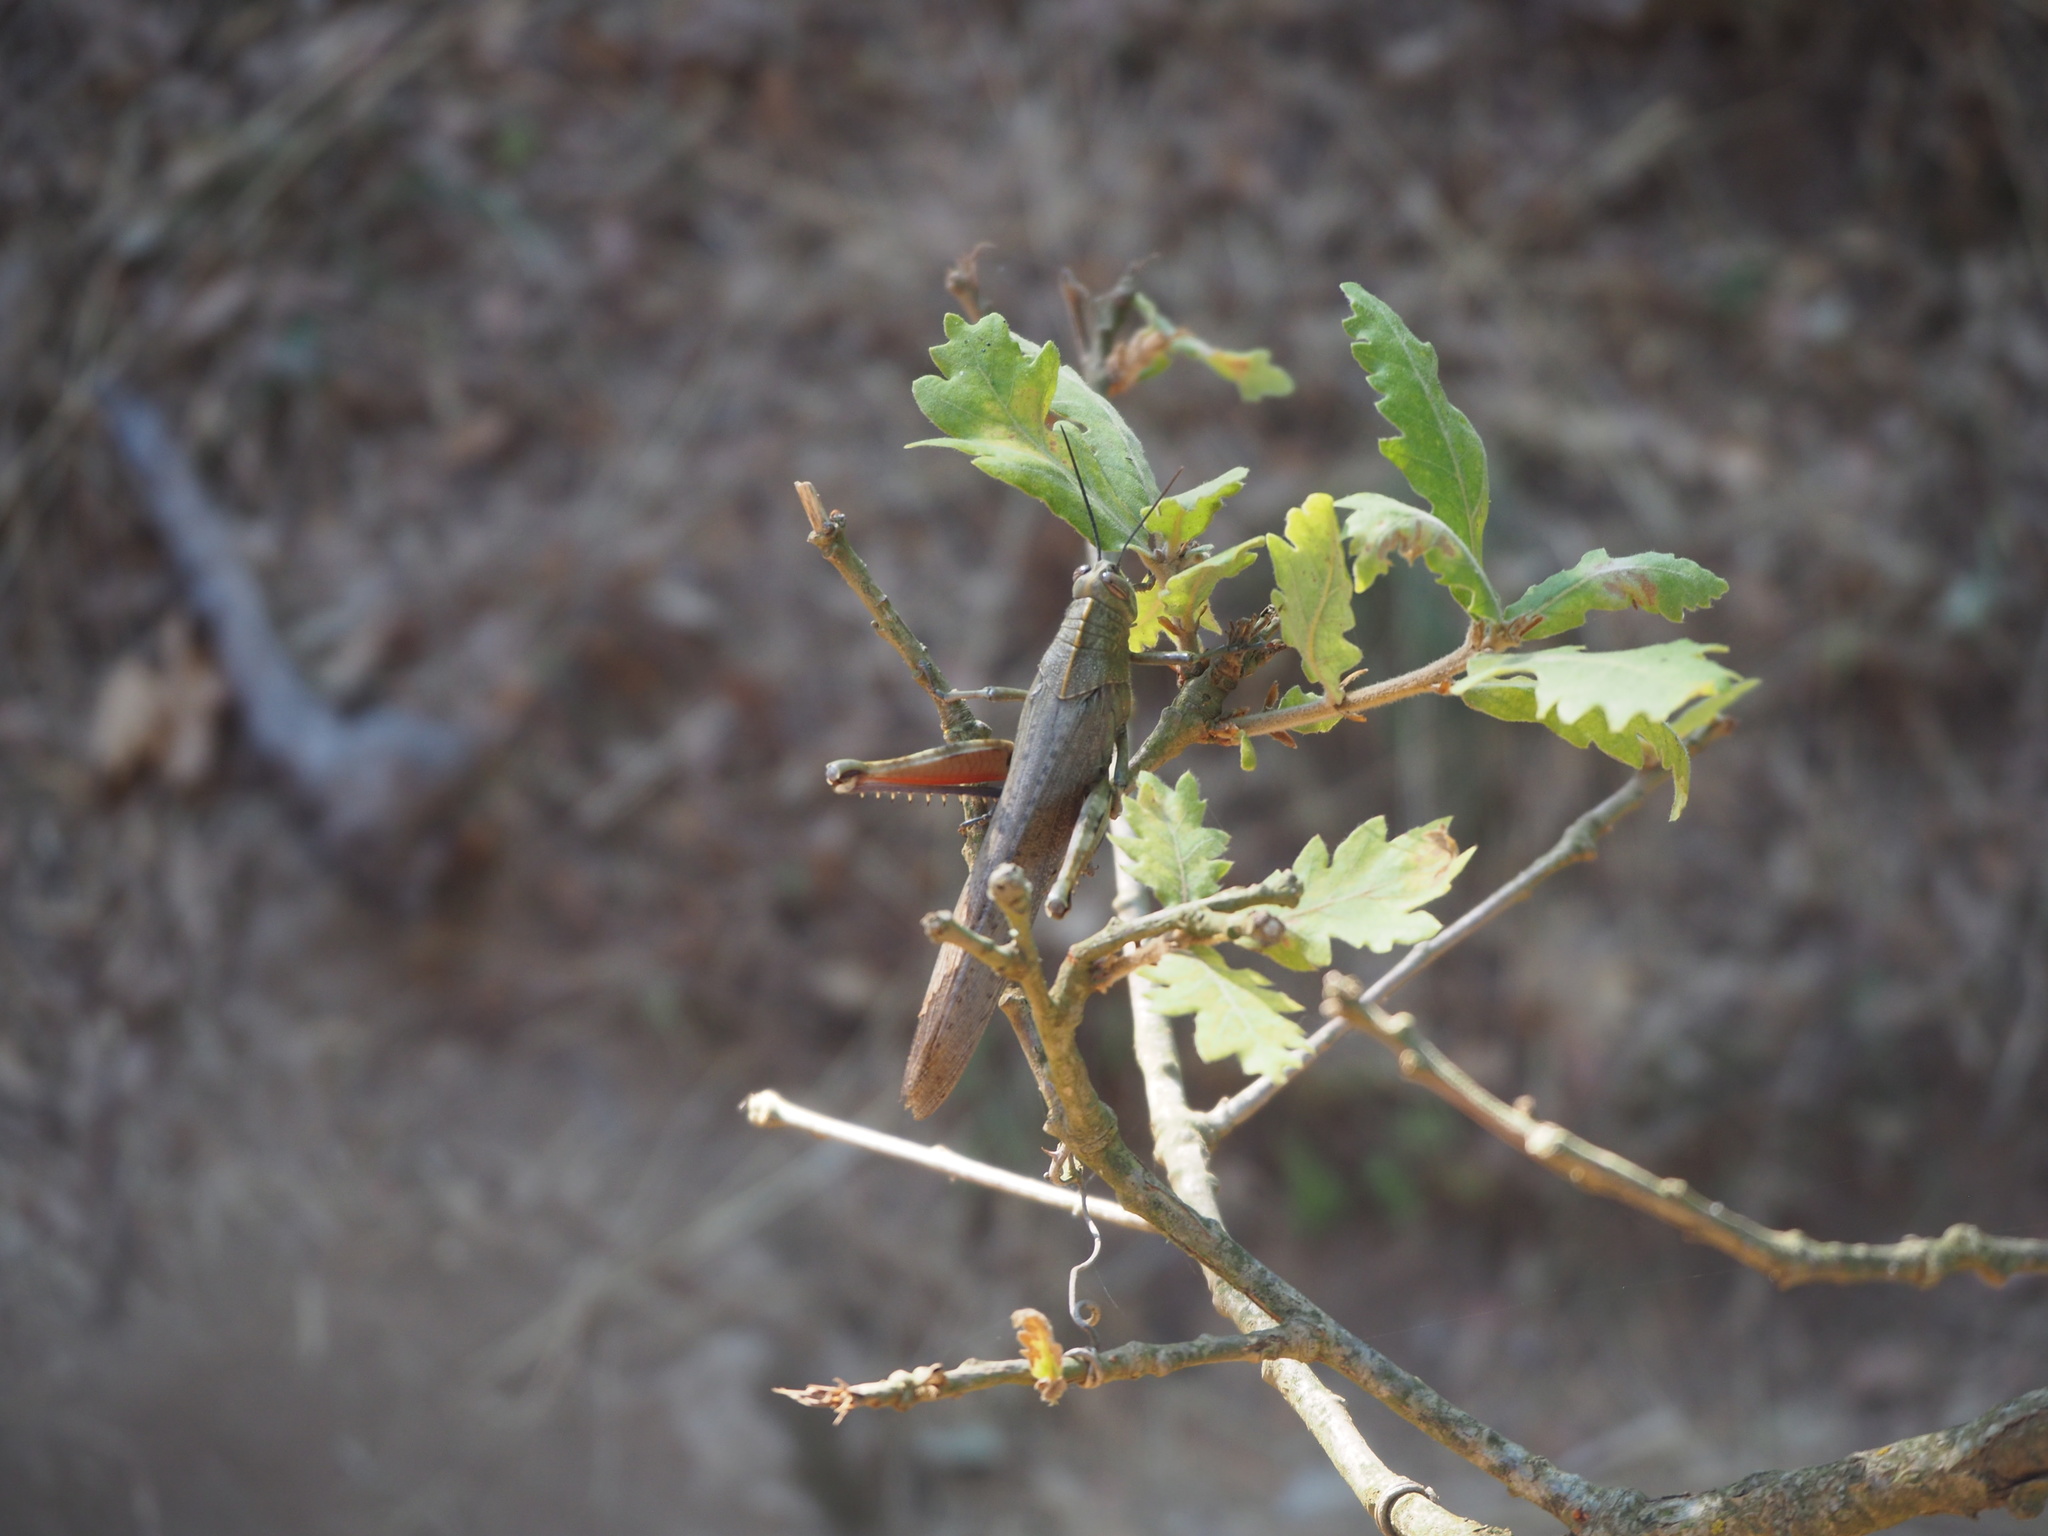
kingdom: Animalia
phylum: Arthropoda
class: Insecta
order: Orthoptera
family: Acrididae
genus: Anacridium
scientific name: Anacridium aegyptium
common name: Egyptian grasshopper
